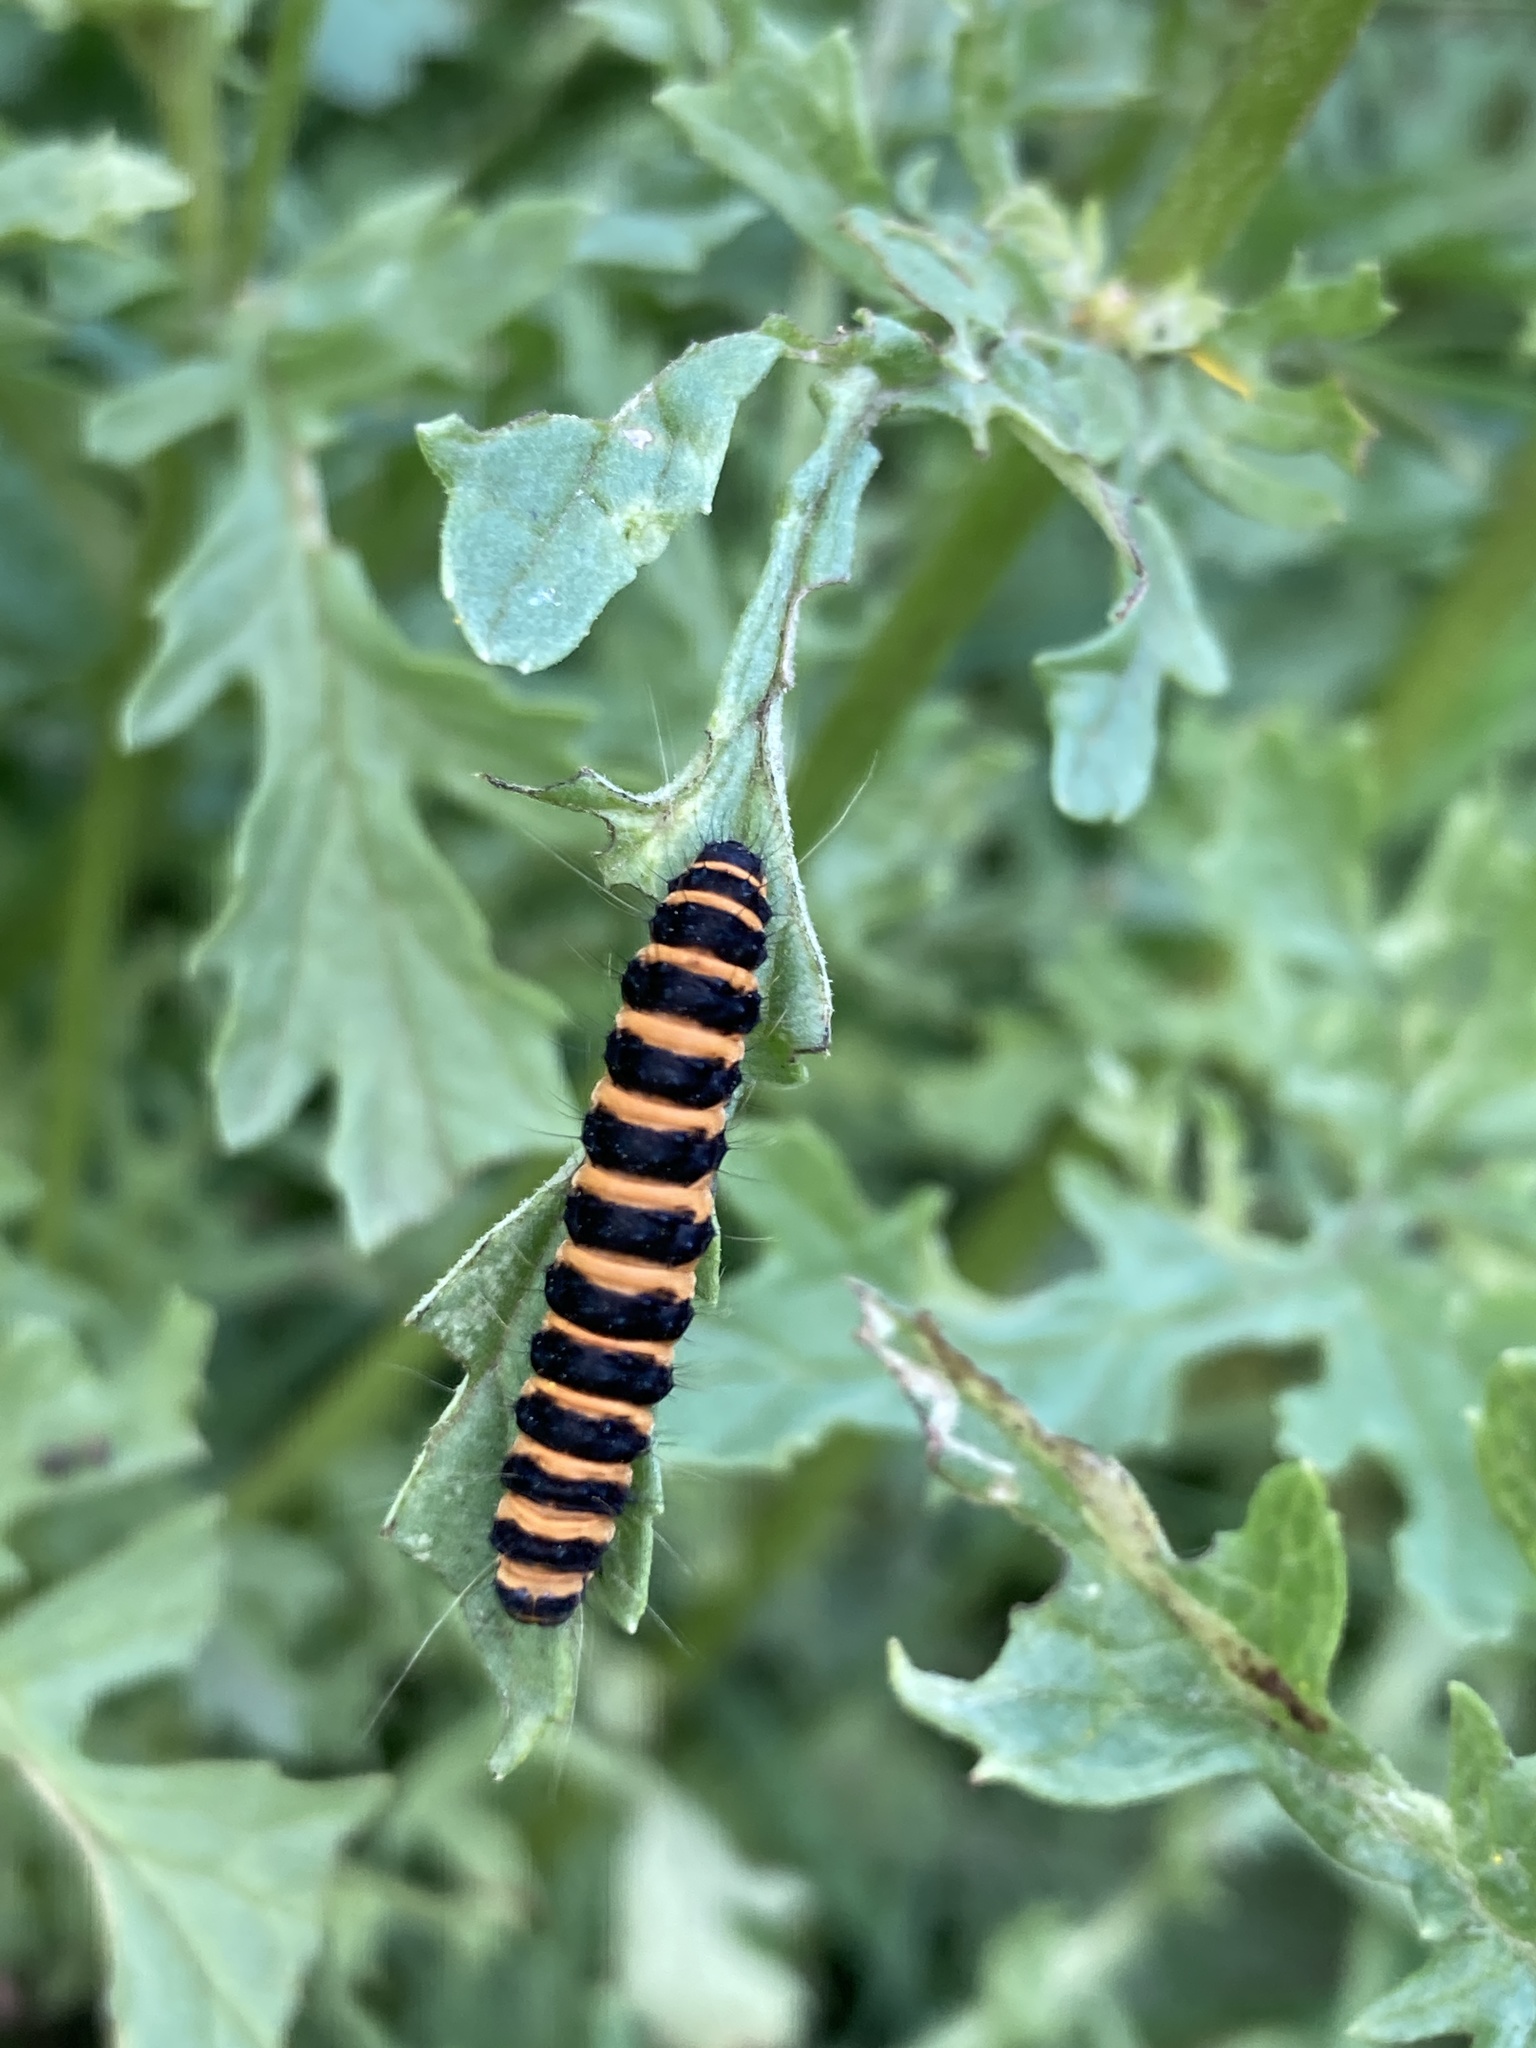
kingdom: Animalia
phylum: Arthropoda
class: Insecta
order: Lepidoptera
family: Erebidae
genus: Tyria
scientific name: Tyria jacobaeae
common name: Cinnabar
